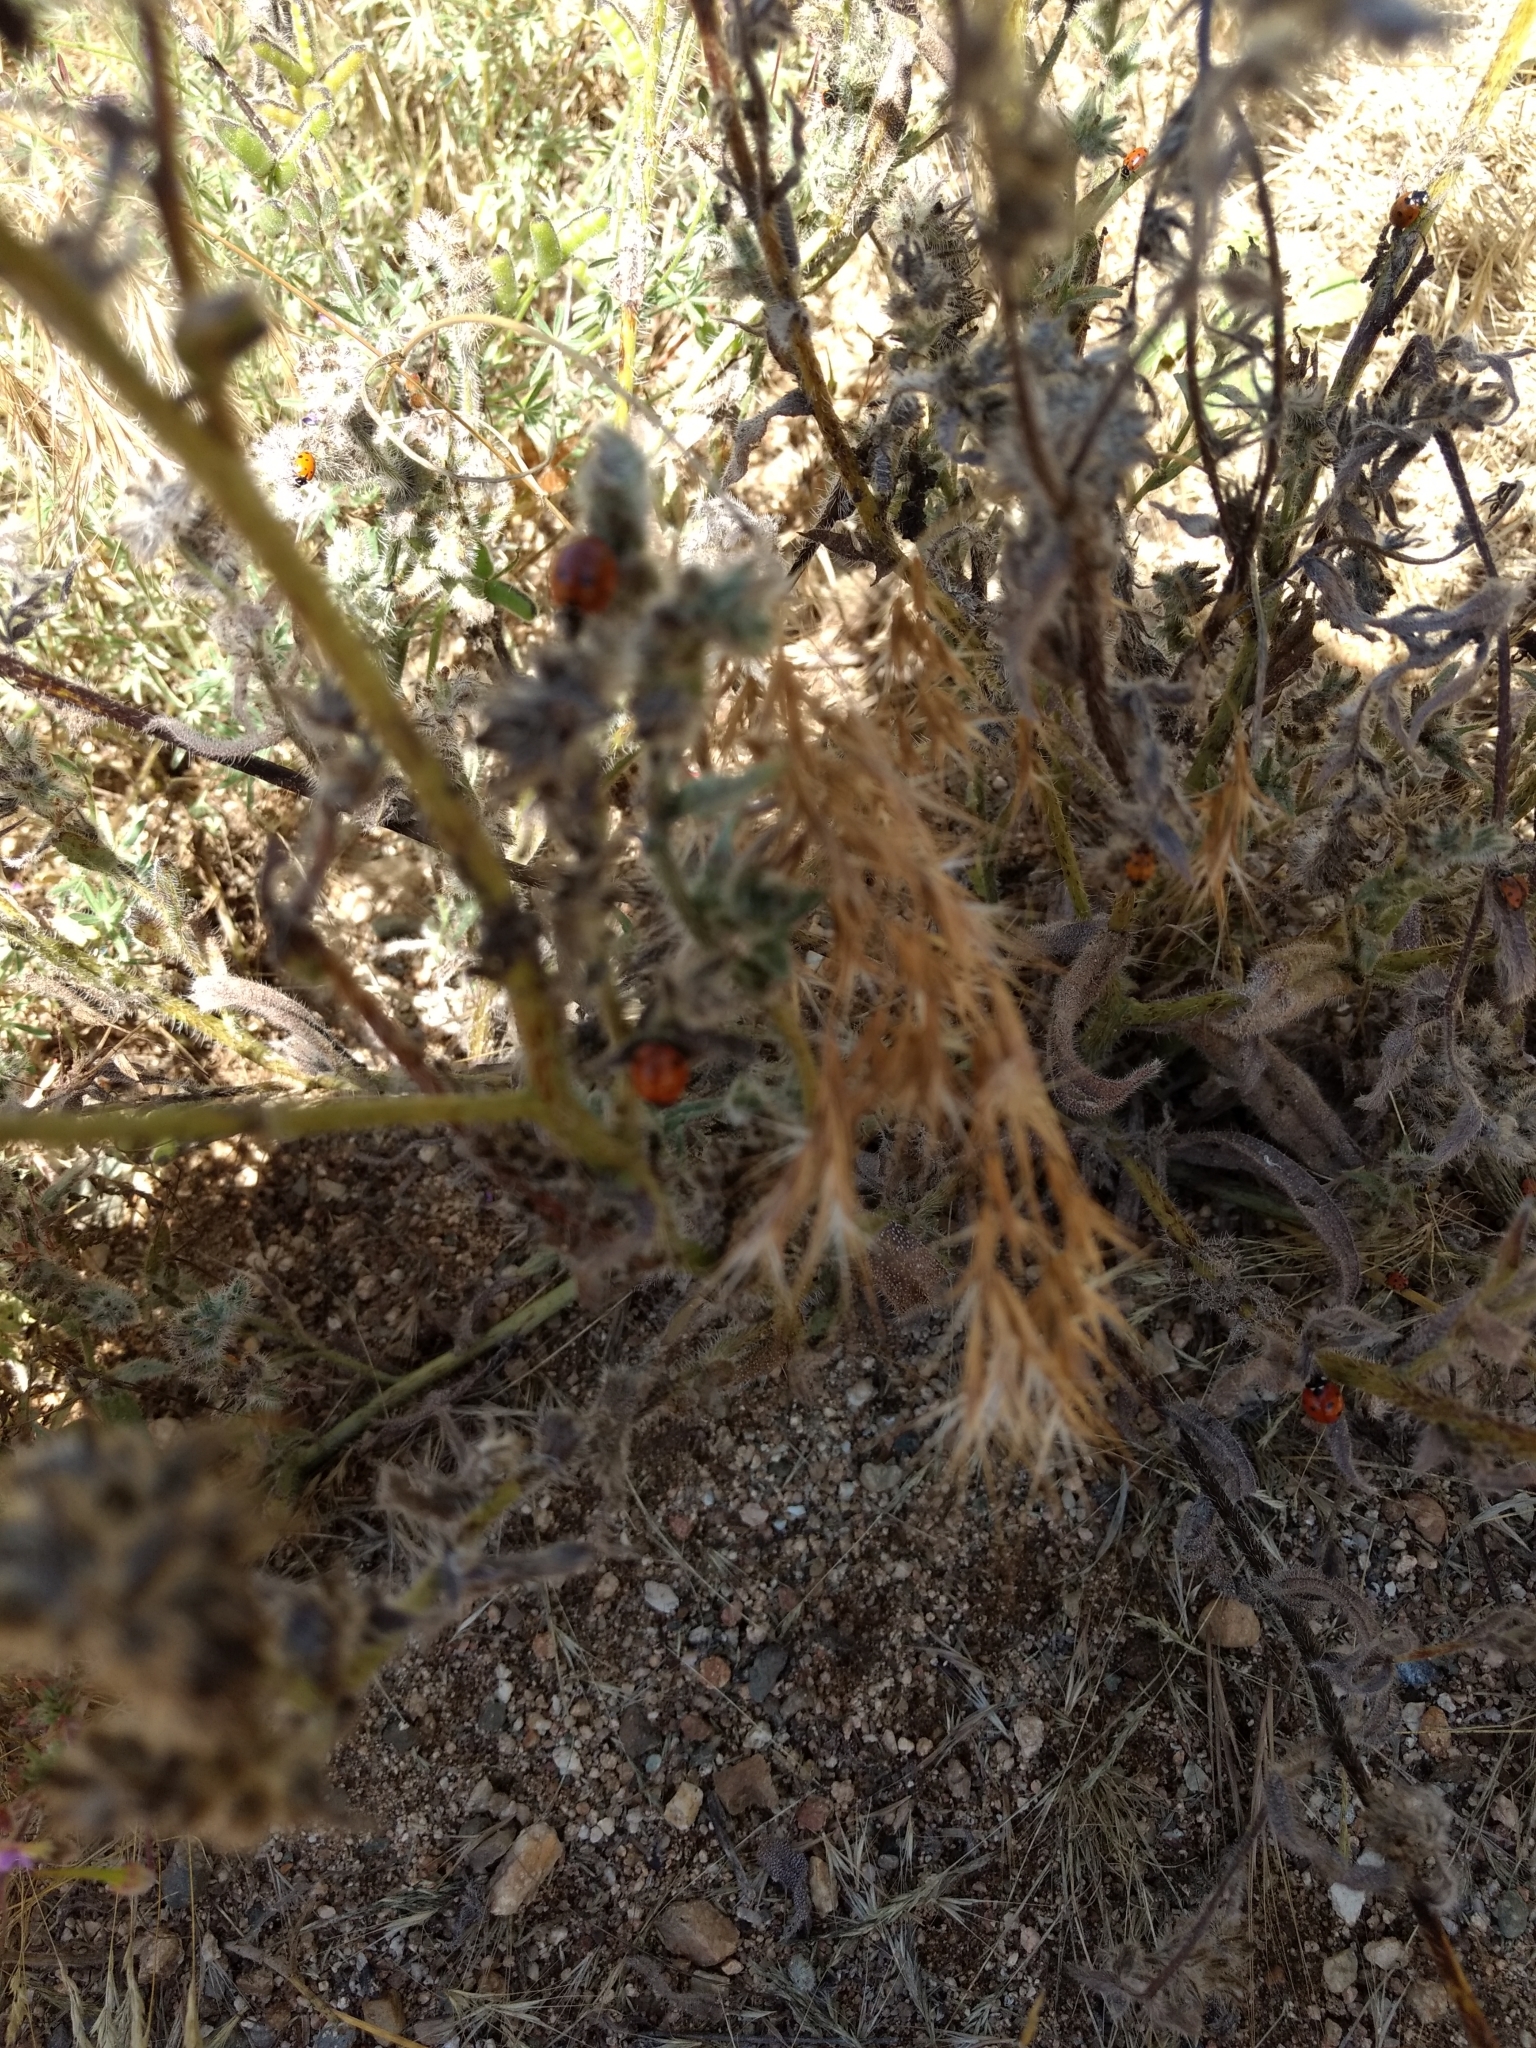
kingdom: Animalia
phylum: Arthropoda
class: Insecta
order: Coleoptera
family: Coccinellidae
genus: Coccinella
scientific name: Coccinella septempunctata
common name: Sevenspotted lady beetle
